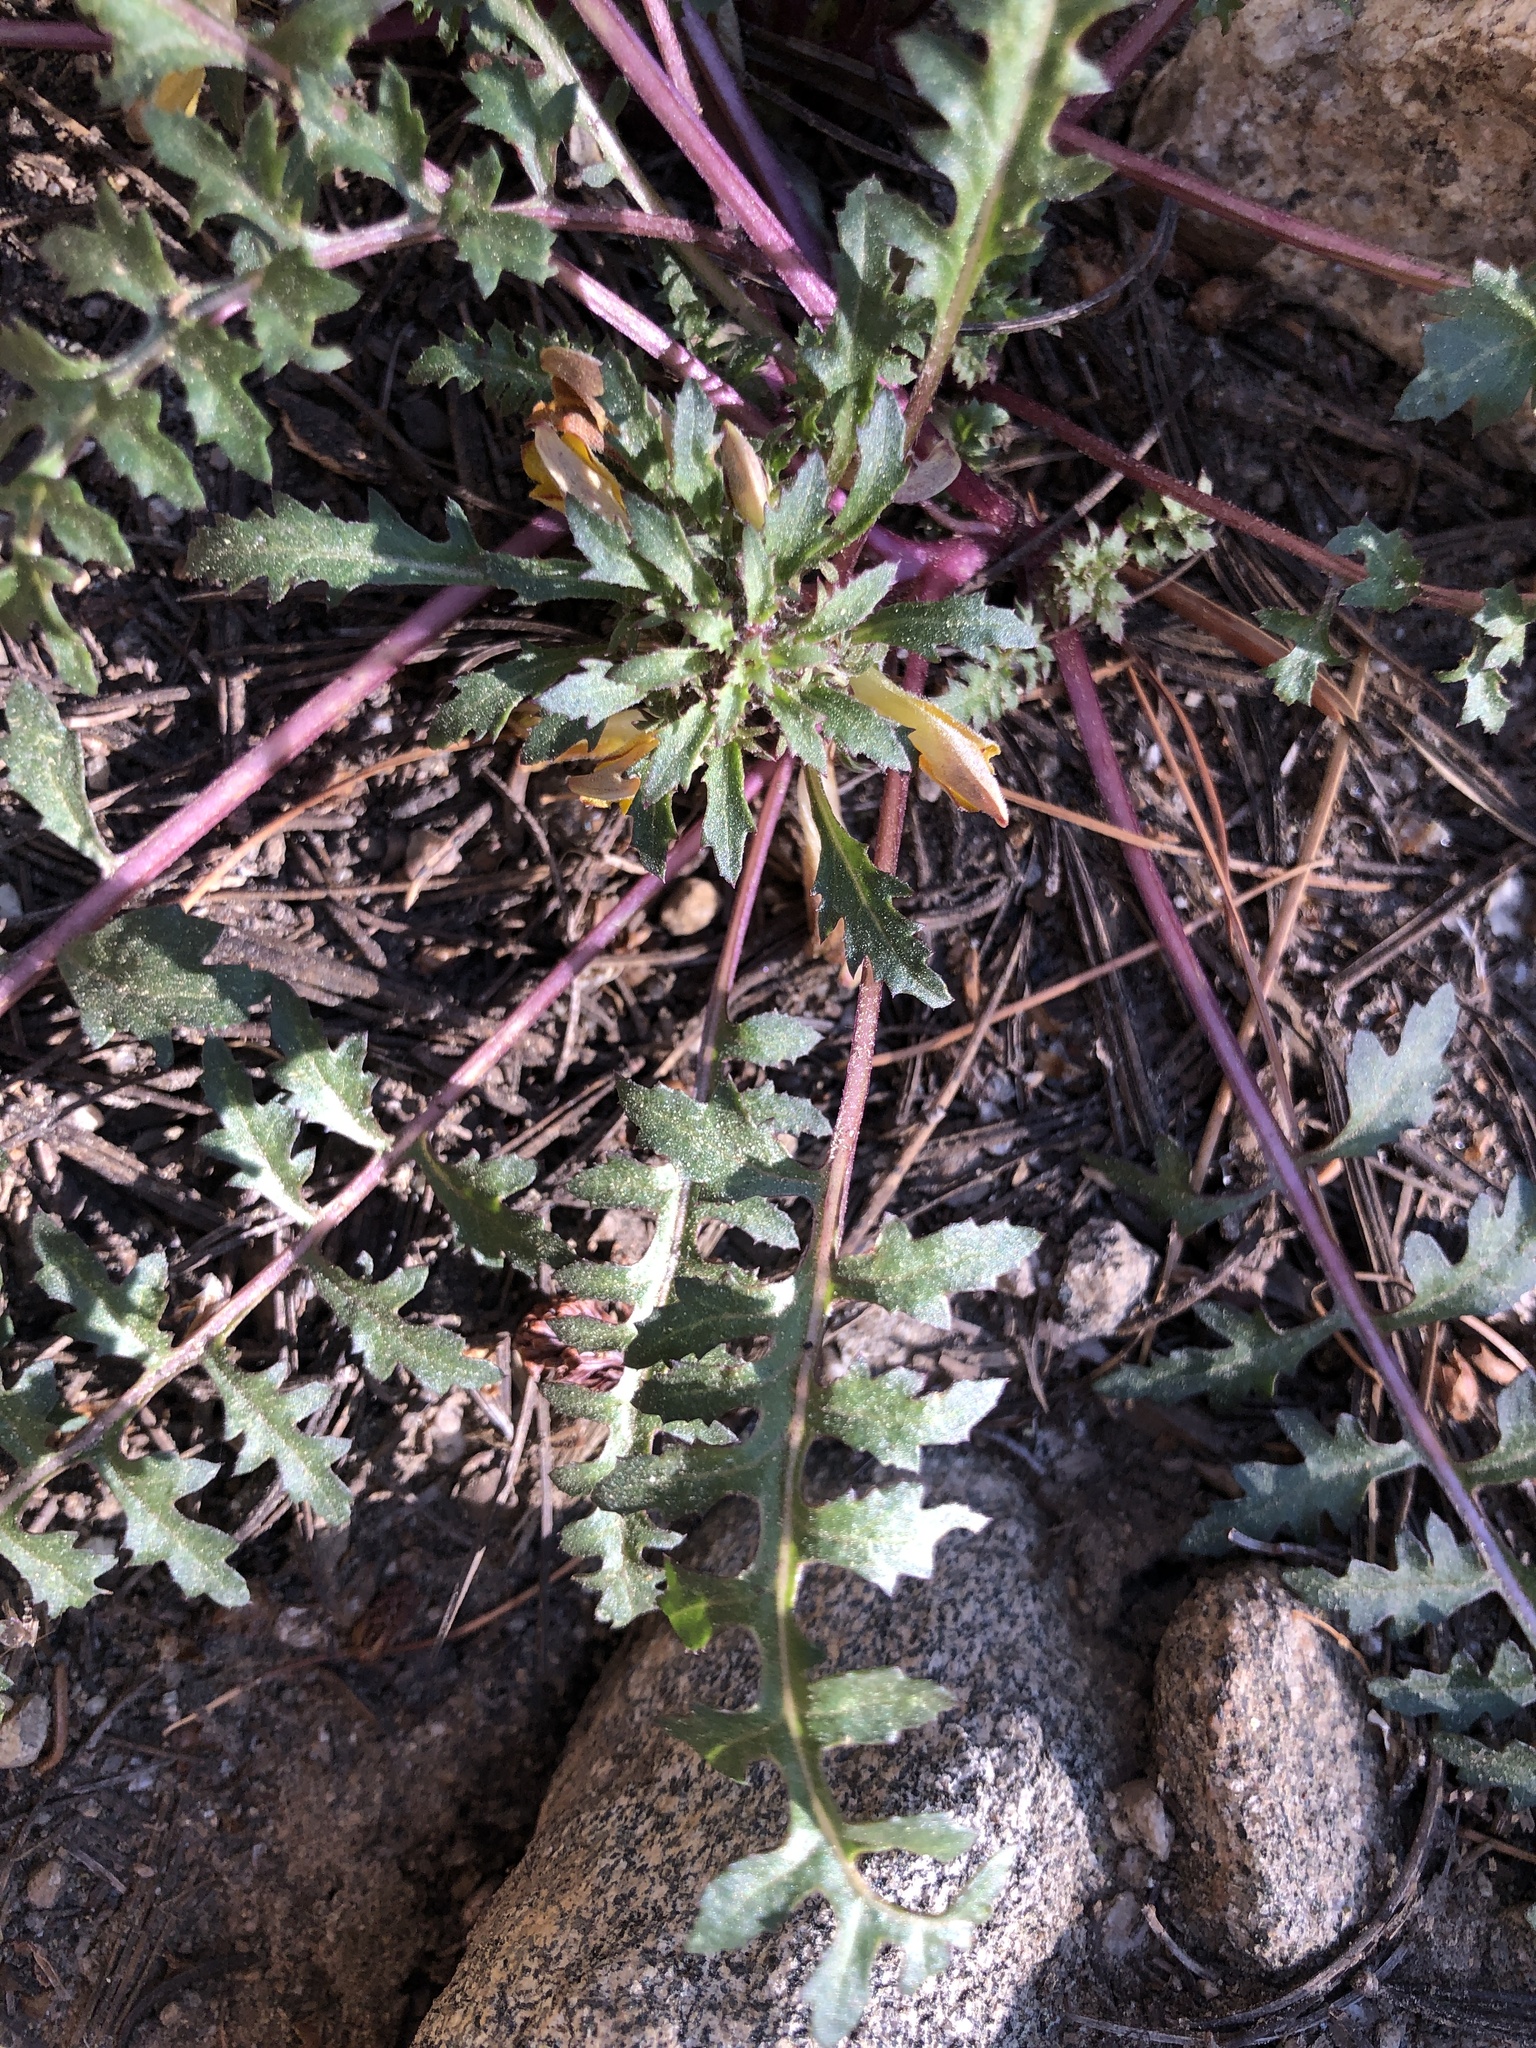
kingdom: Plantae
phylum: Tracheophyta
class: Magnoliopsida
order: Lamiales
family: Orobanchaceae
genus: Pedicularis
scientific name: Pedicularis semibarbata
